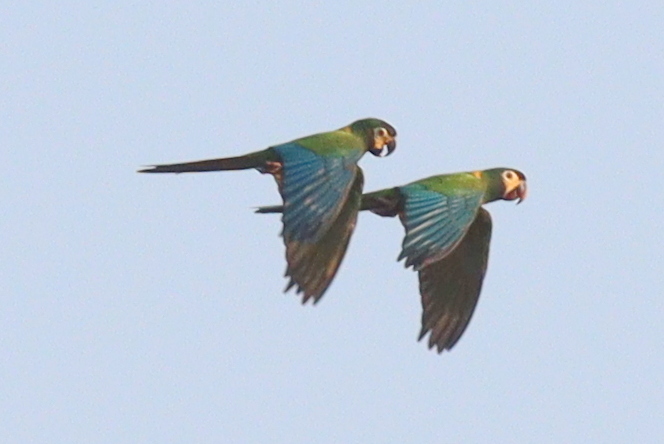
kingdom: Animalia
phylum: Chordata
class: Aves
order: Psittaciformes
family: Psittacidae
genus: Primolius
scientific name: Primolius auricollis
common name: Golden-collared macaw
